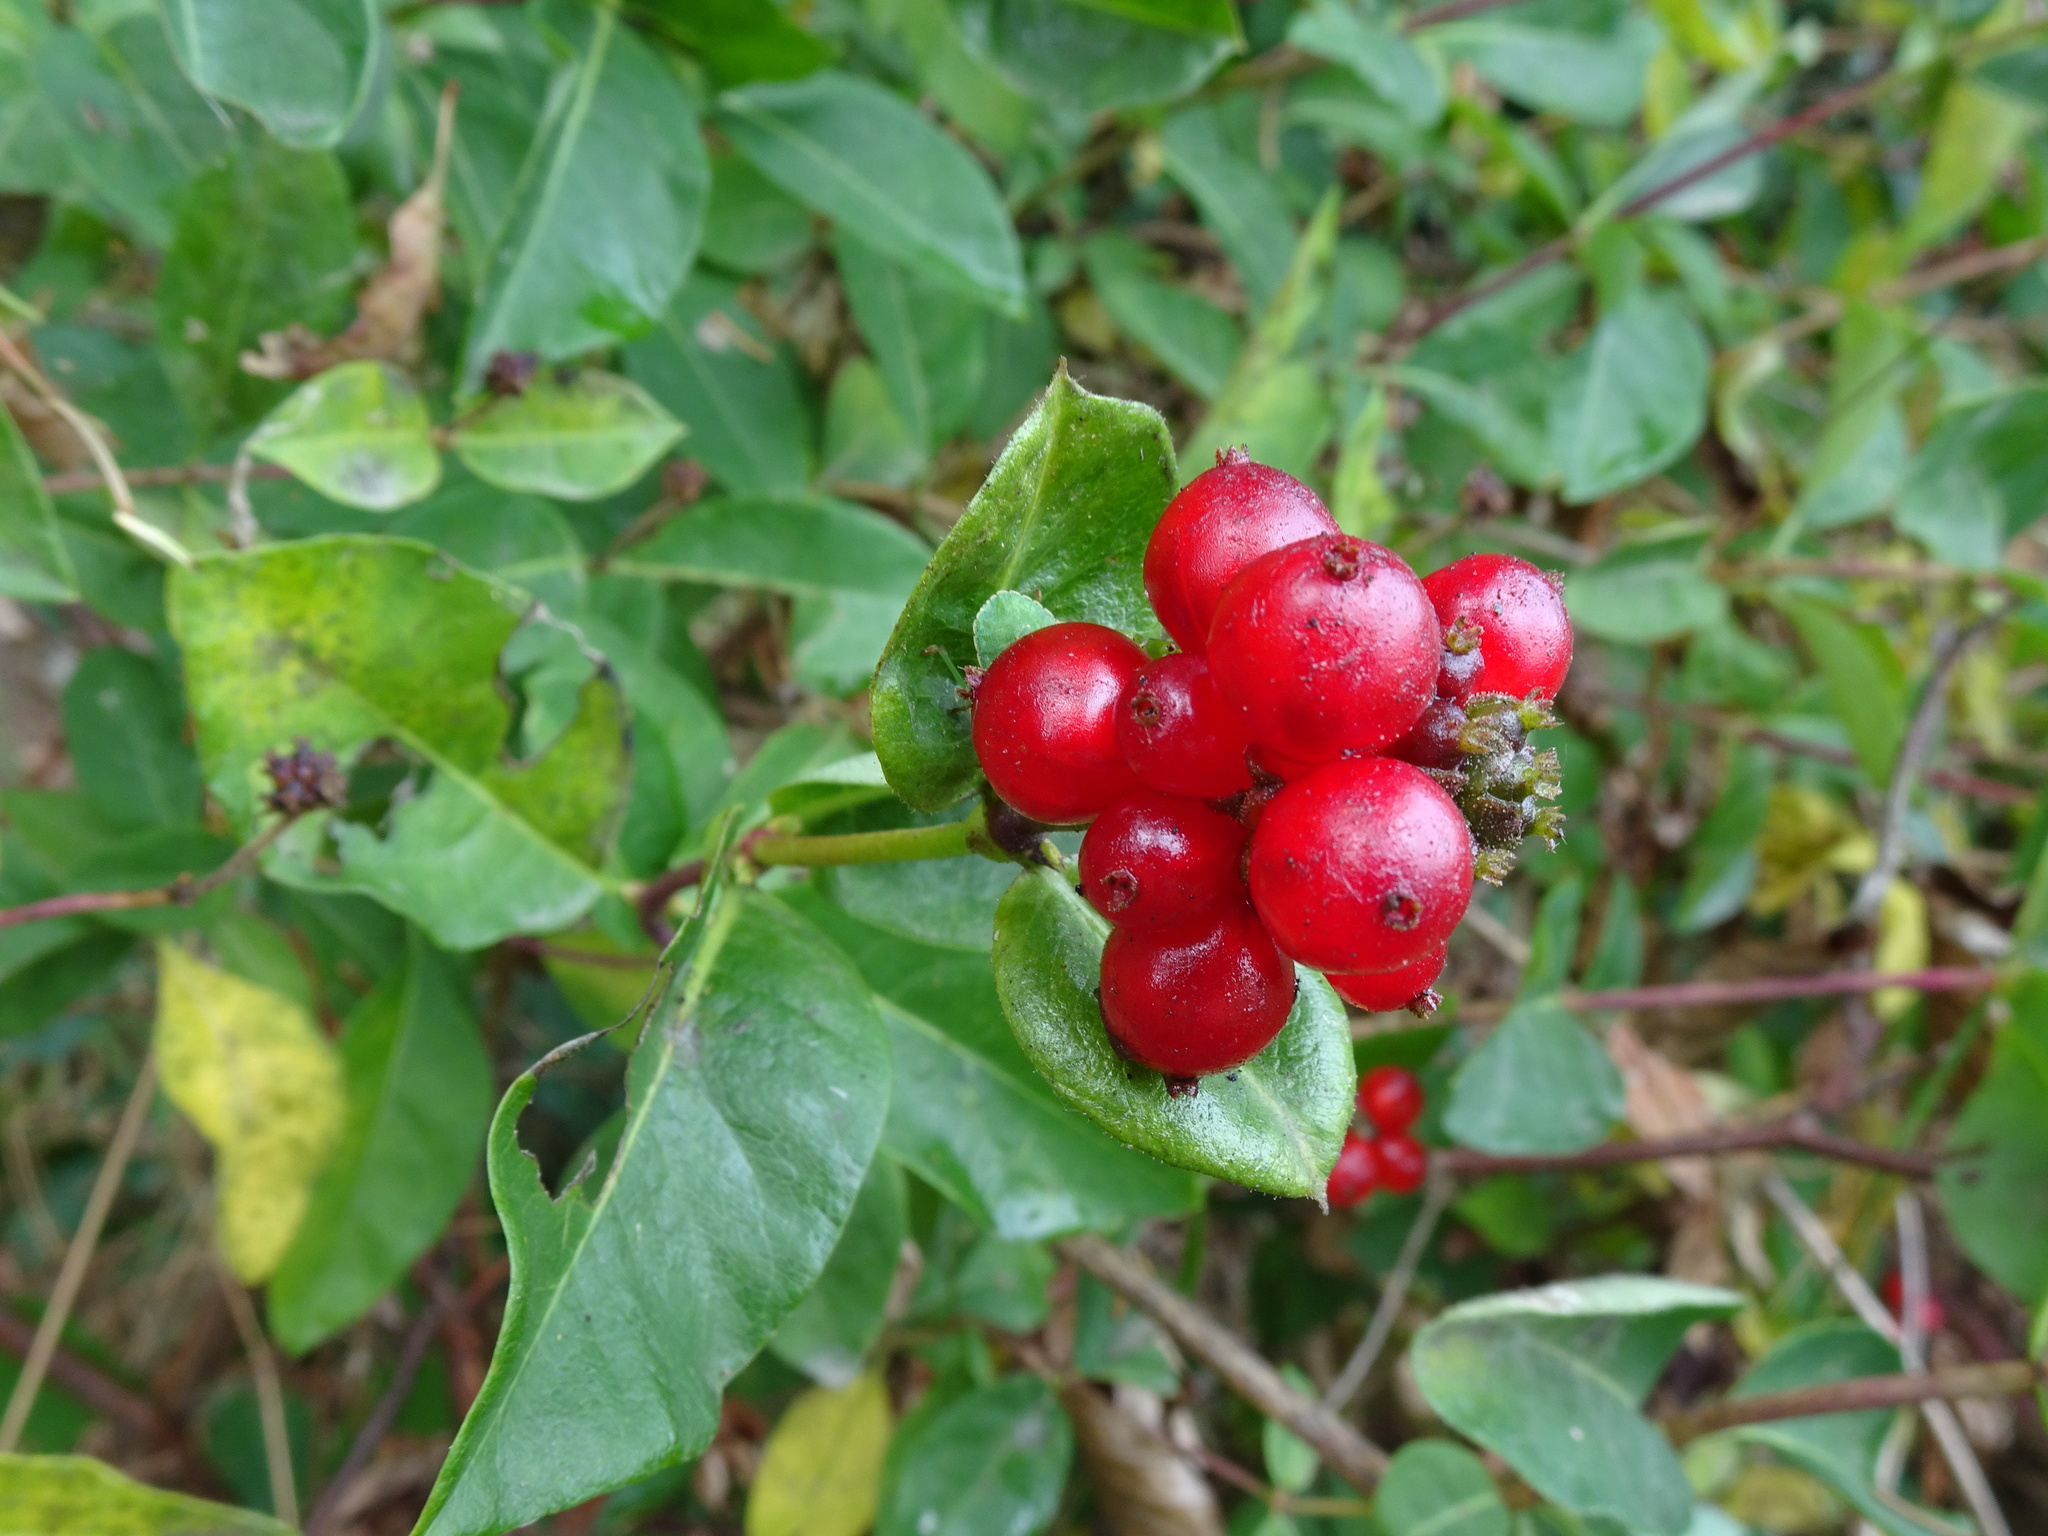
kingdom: Plantae
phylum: Tracheophyta
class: Magnoliopsida
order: Dipsacales
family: Caprifoliaceae
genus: Lonicera
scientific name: Lonicera periclymenum
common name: European honeysuckle
